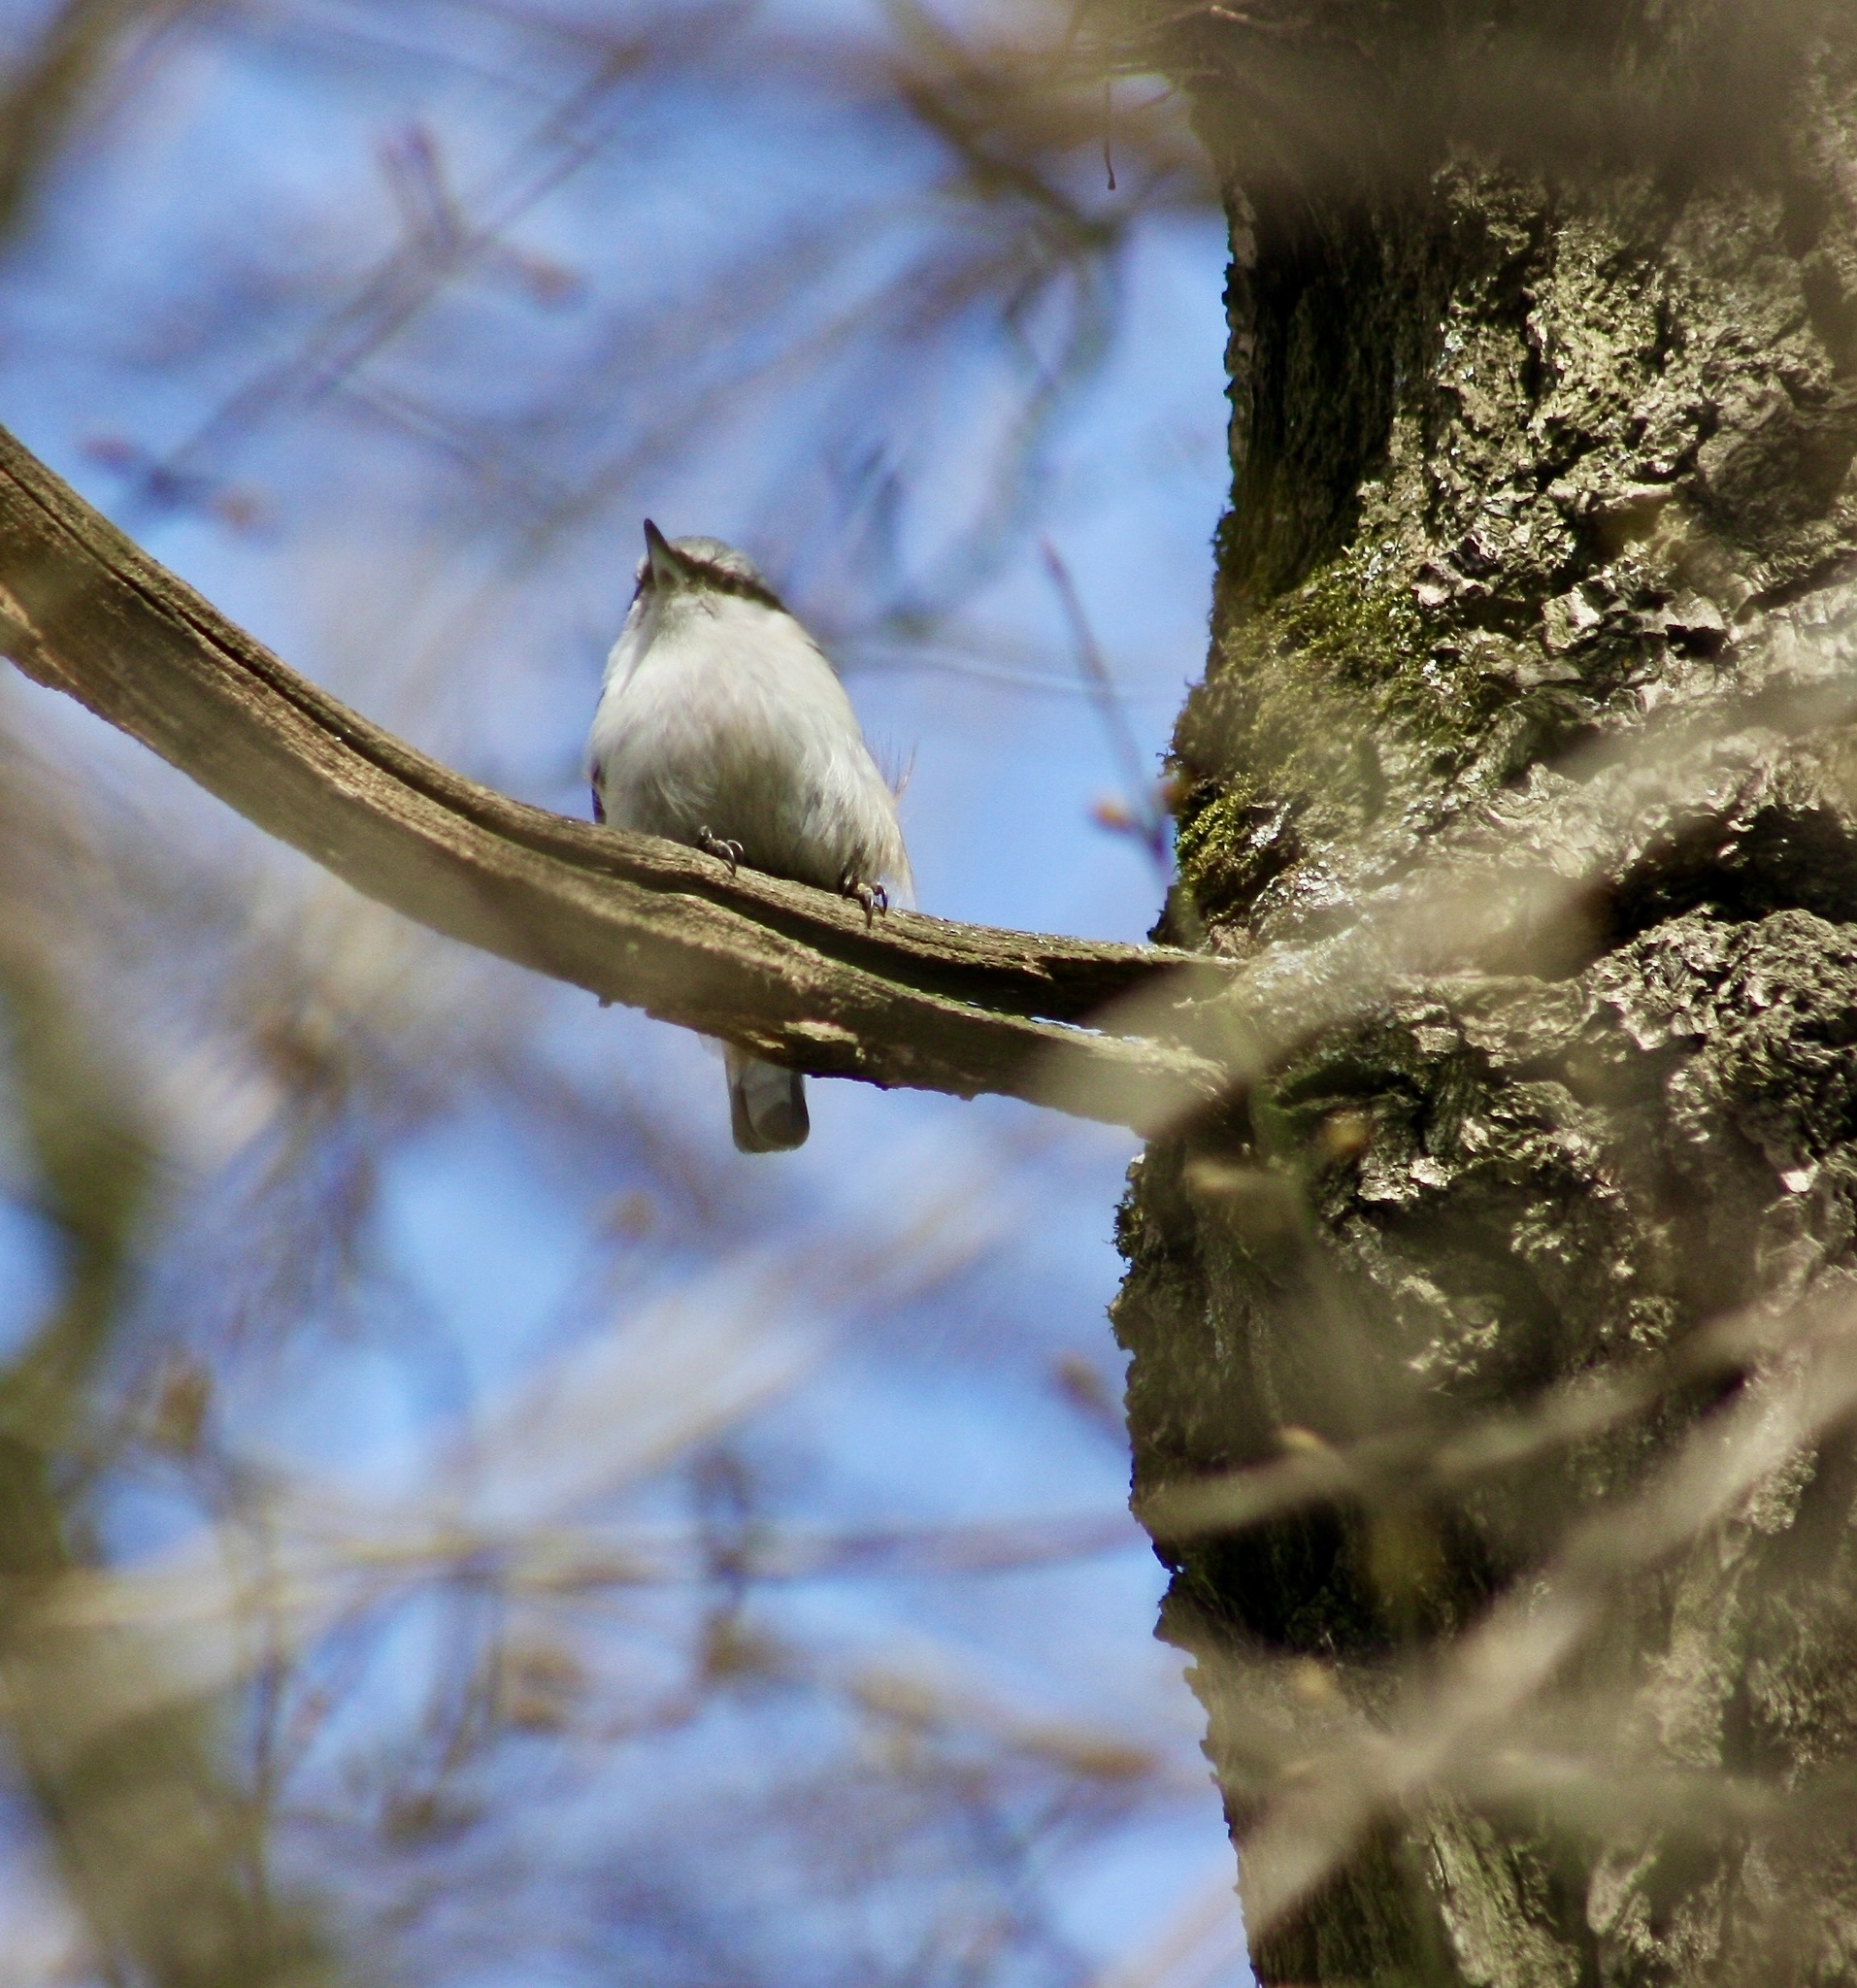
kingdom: Animalia
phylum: Chordata
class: Aves
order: Passeriformes
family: Sittidae
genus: Sitta
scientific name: Sitta europaea
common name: Eurasian nuthatch
